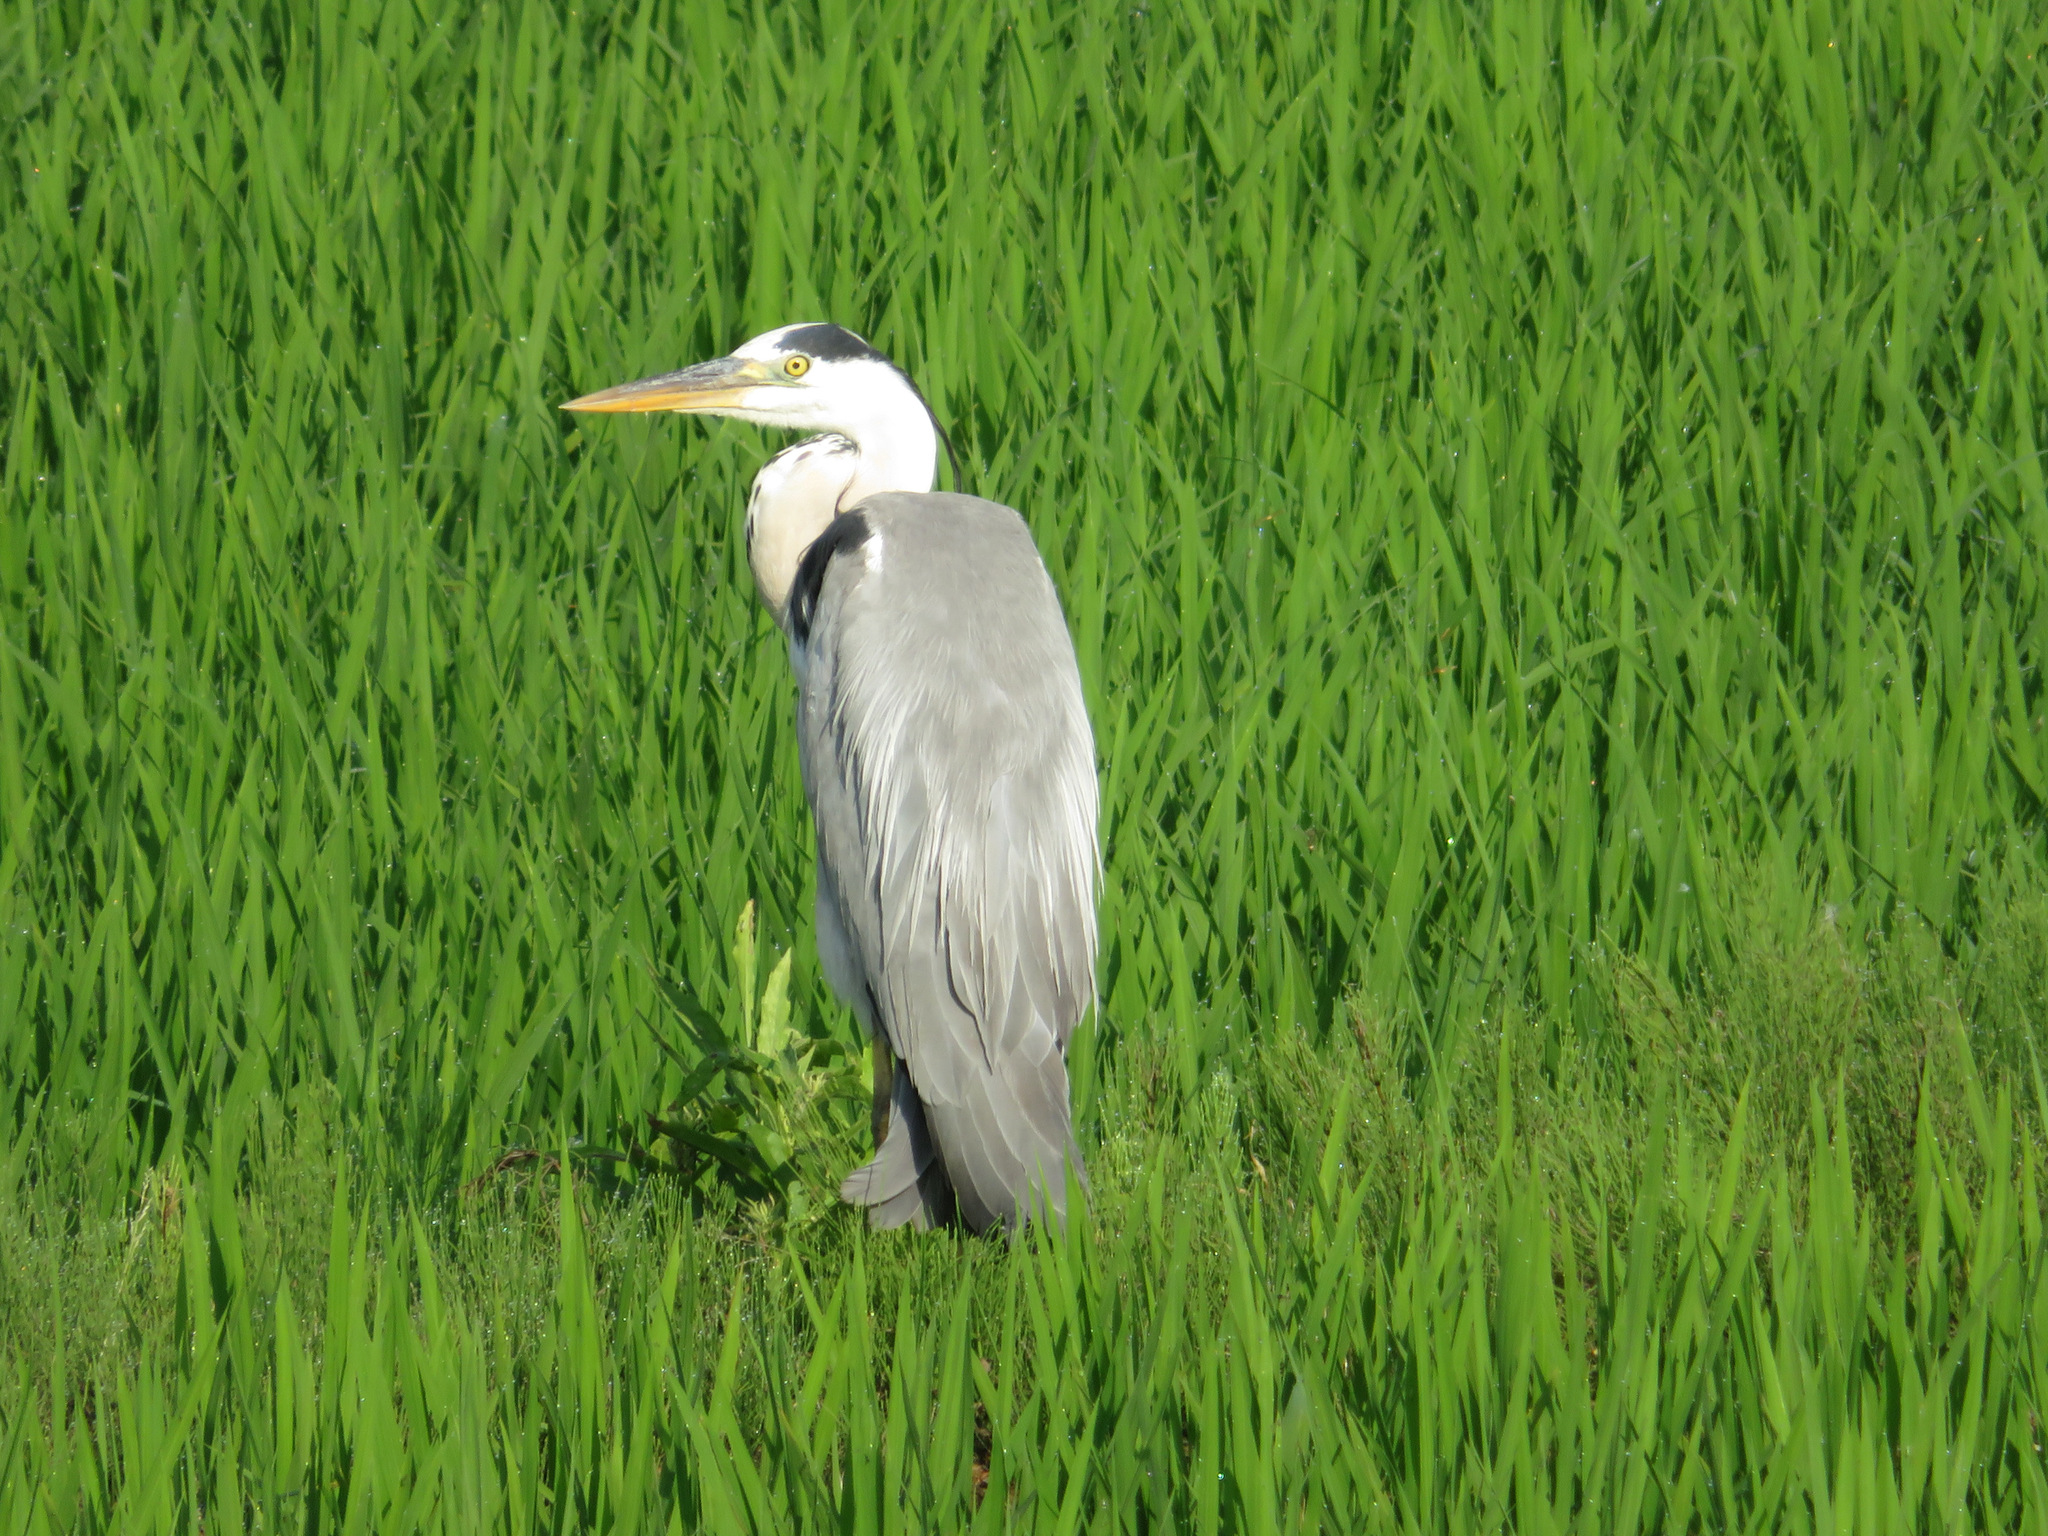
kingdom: Animalia
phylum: Chordata
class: Aves
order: Pelecaniformes
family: Ardeidae
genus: Ardea
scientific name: Ardea cinerea
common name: Grey heron
